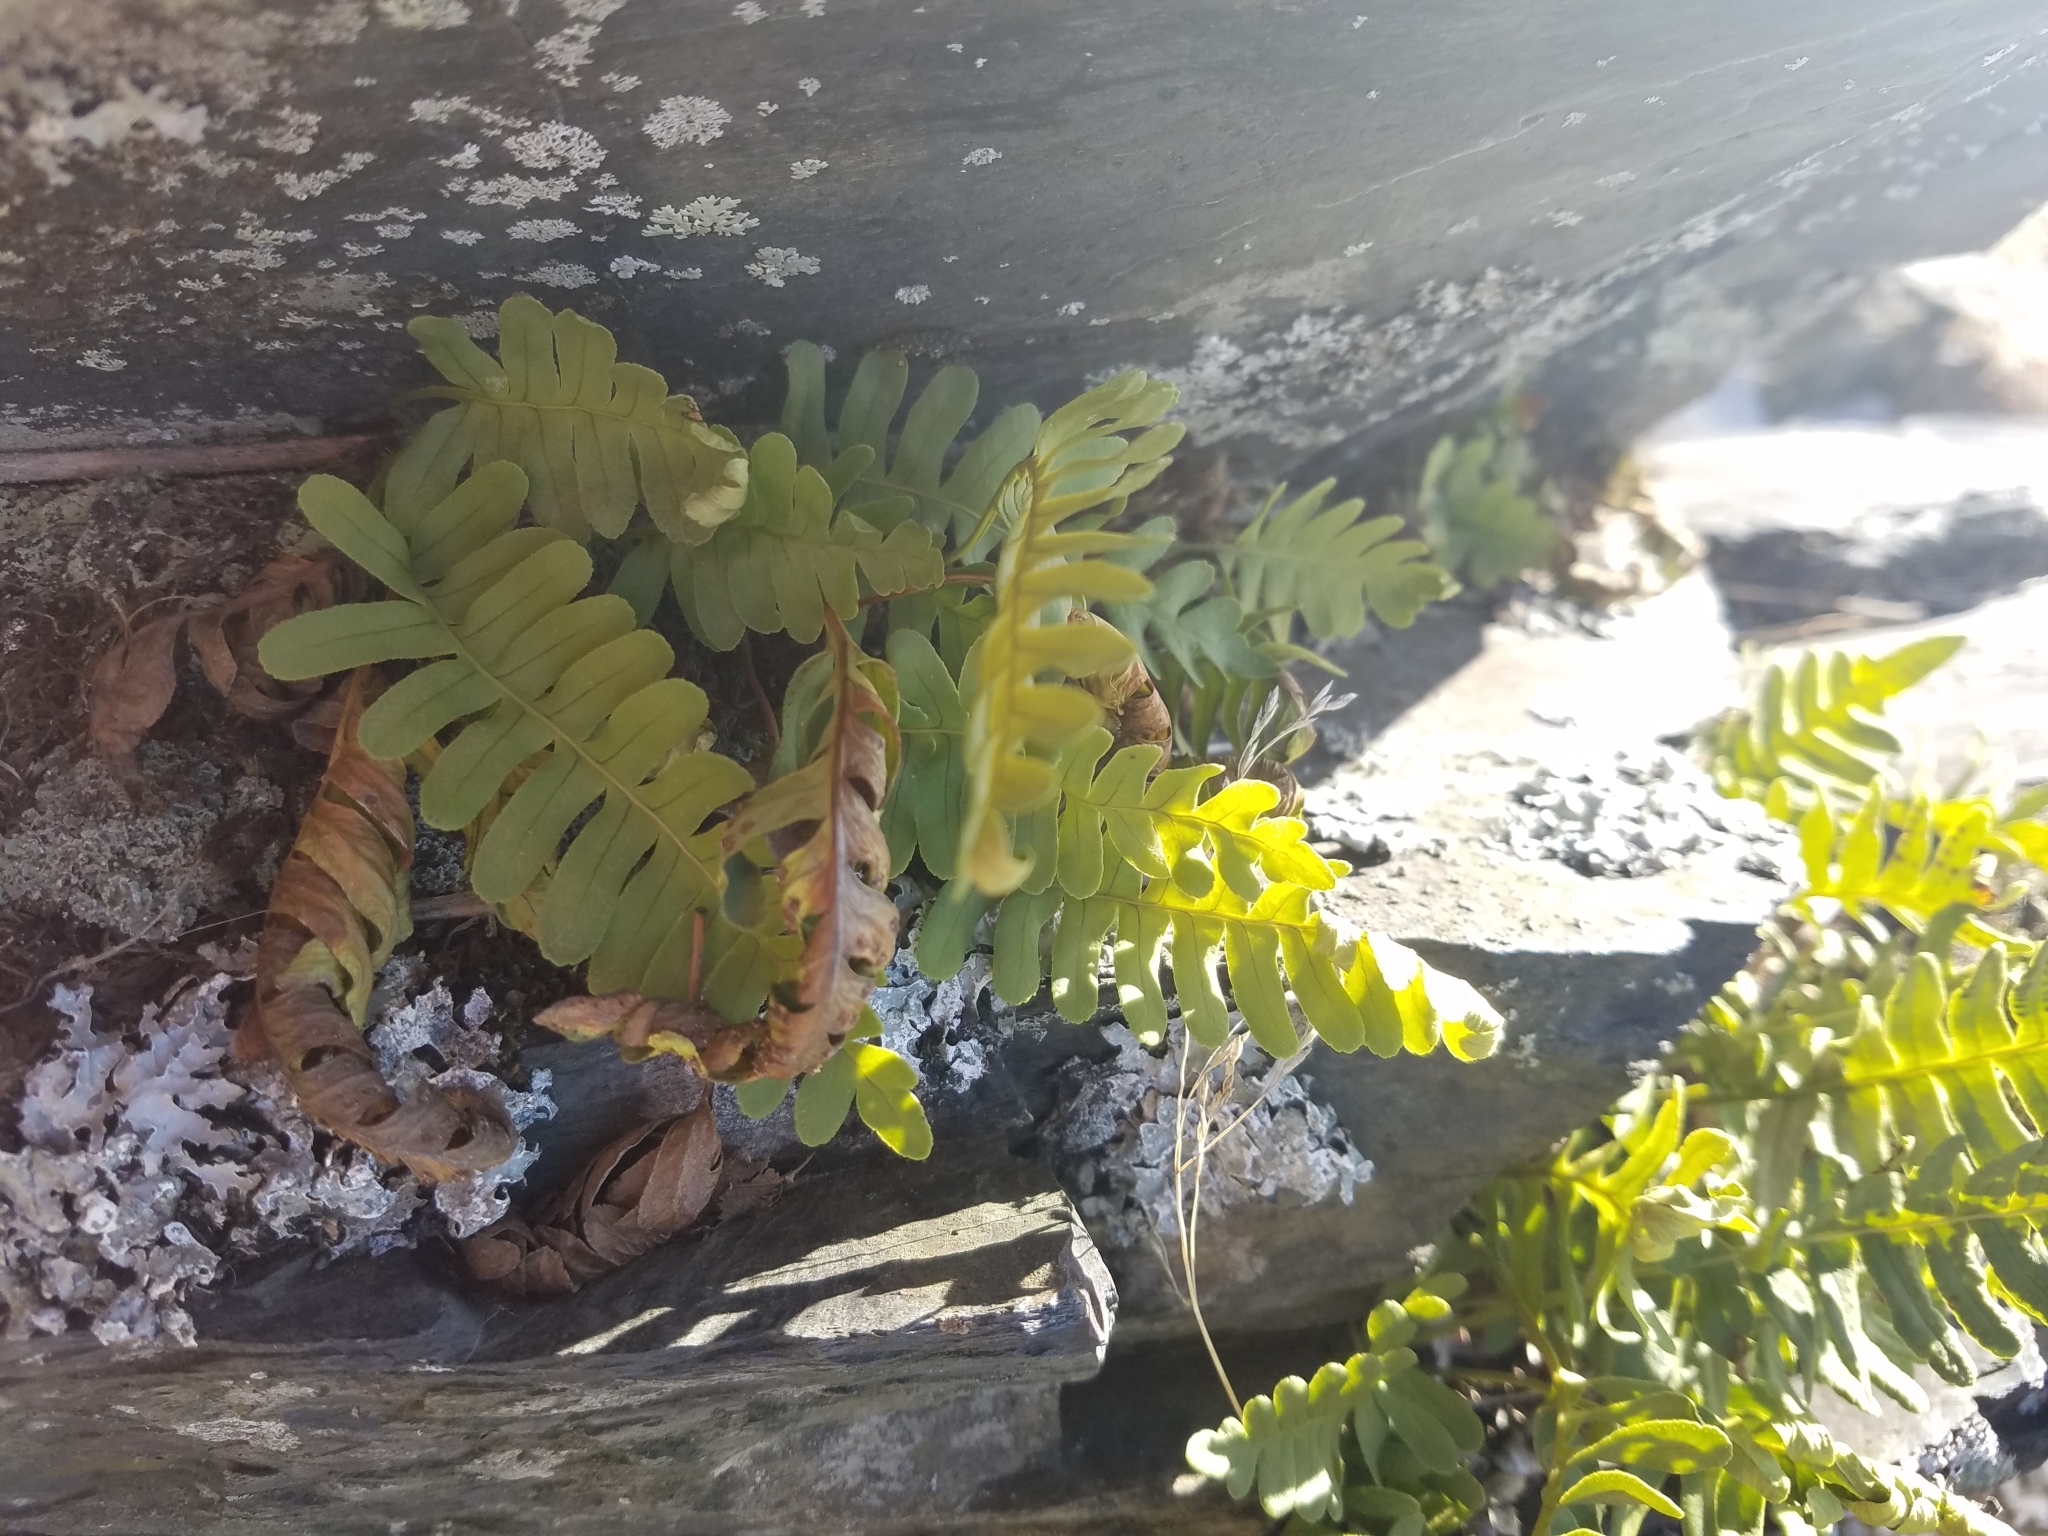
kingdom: Plantae
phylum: Tracheophyta
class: Polypodiopsida
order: Polypodiales
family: Polypodiaceae
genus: Polypodium
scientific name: Polypodium virginianum
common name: American wall fern
